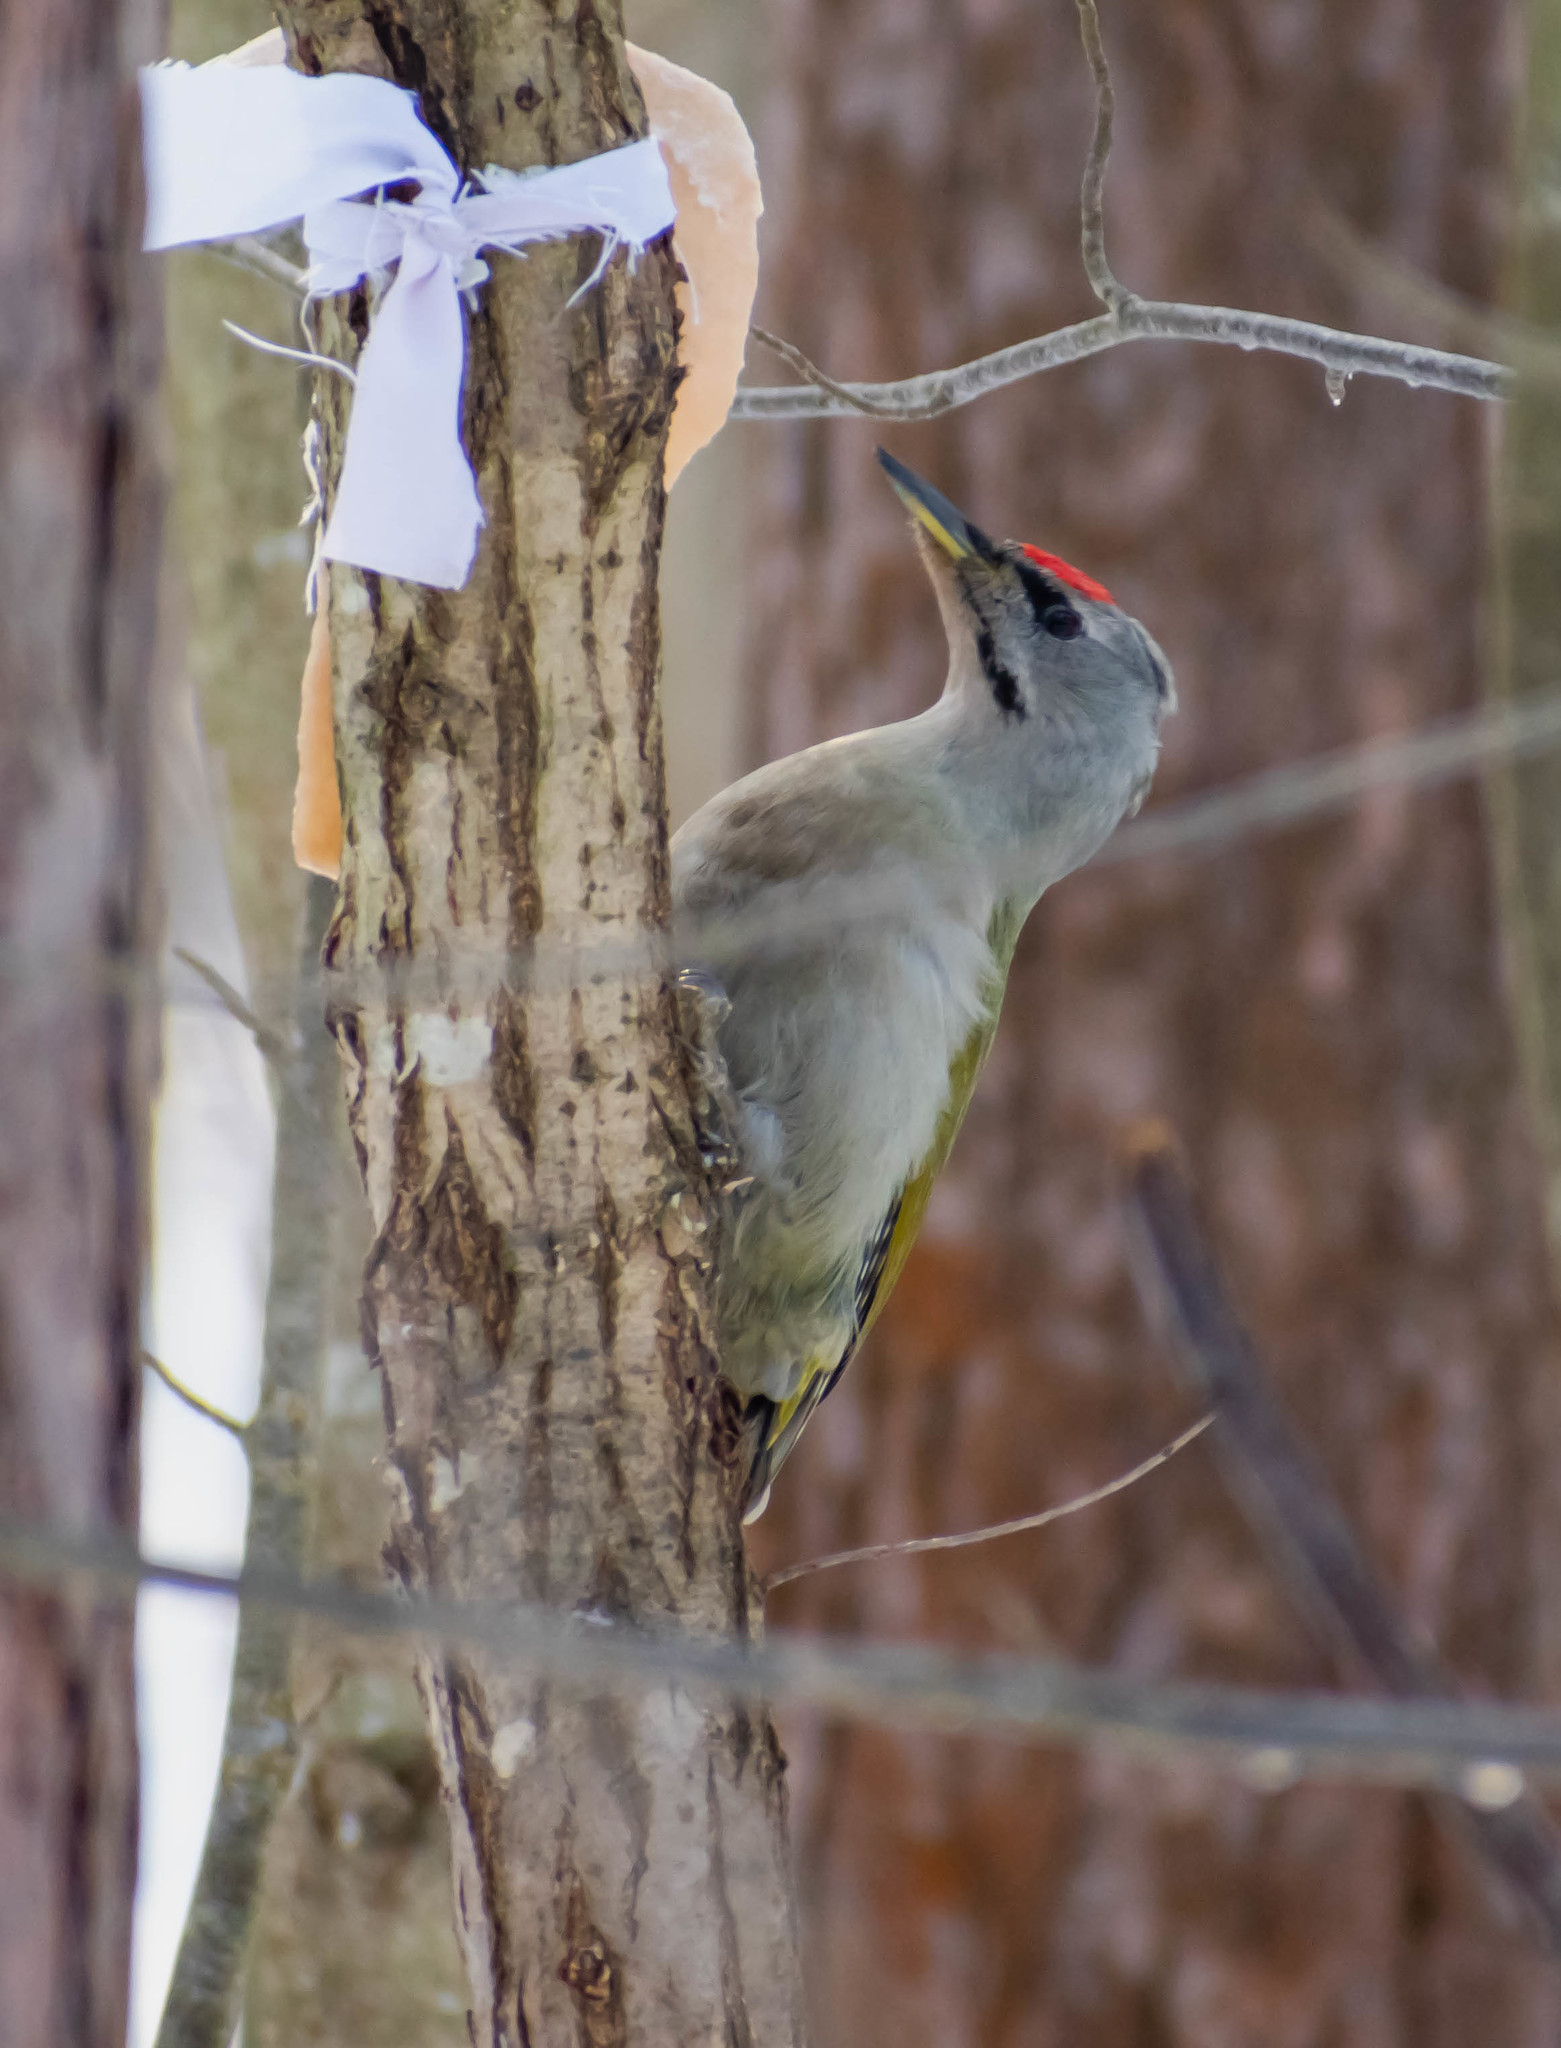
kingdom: Animalia
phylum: Chordata
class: Aves
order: Piciformes
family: Picidae
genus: Picus
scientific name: Picus canus
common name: Grey-headed woodpecker
